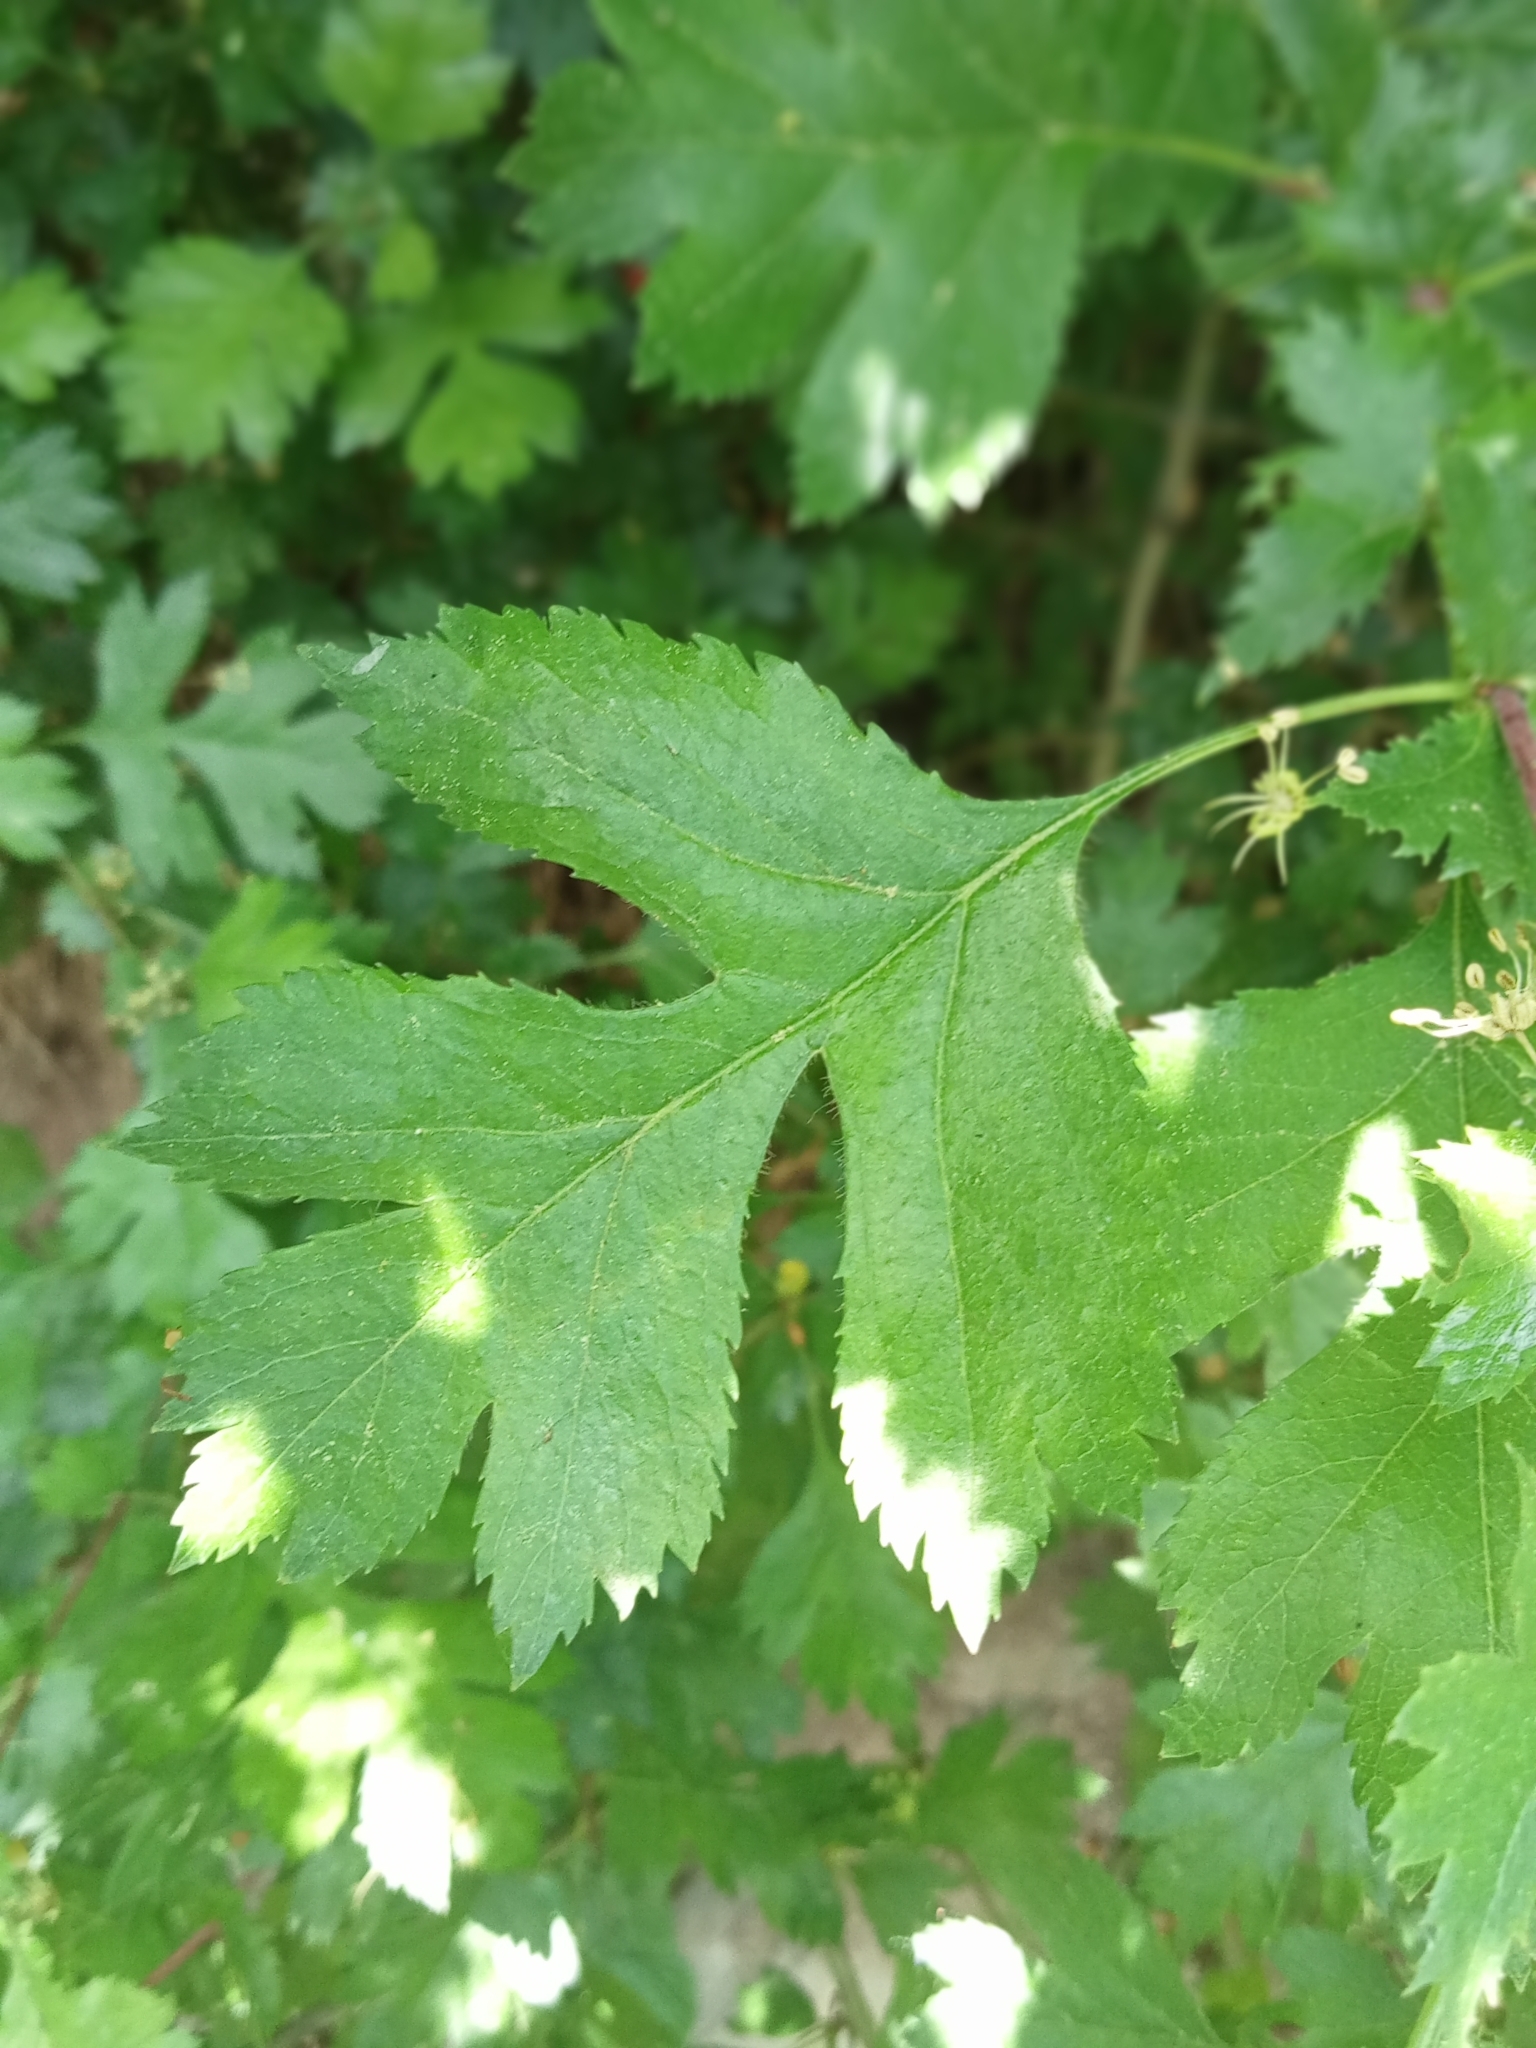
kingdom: Plantae
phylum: Tracheophyta
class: Magnoliopsida
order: Rosales
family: Rosaceae
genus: Crataegus
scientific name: Crataegus
